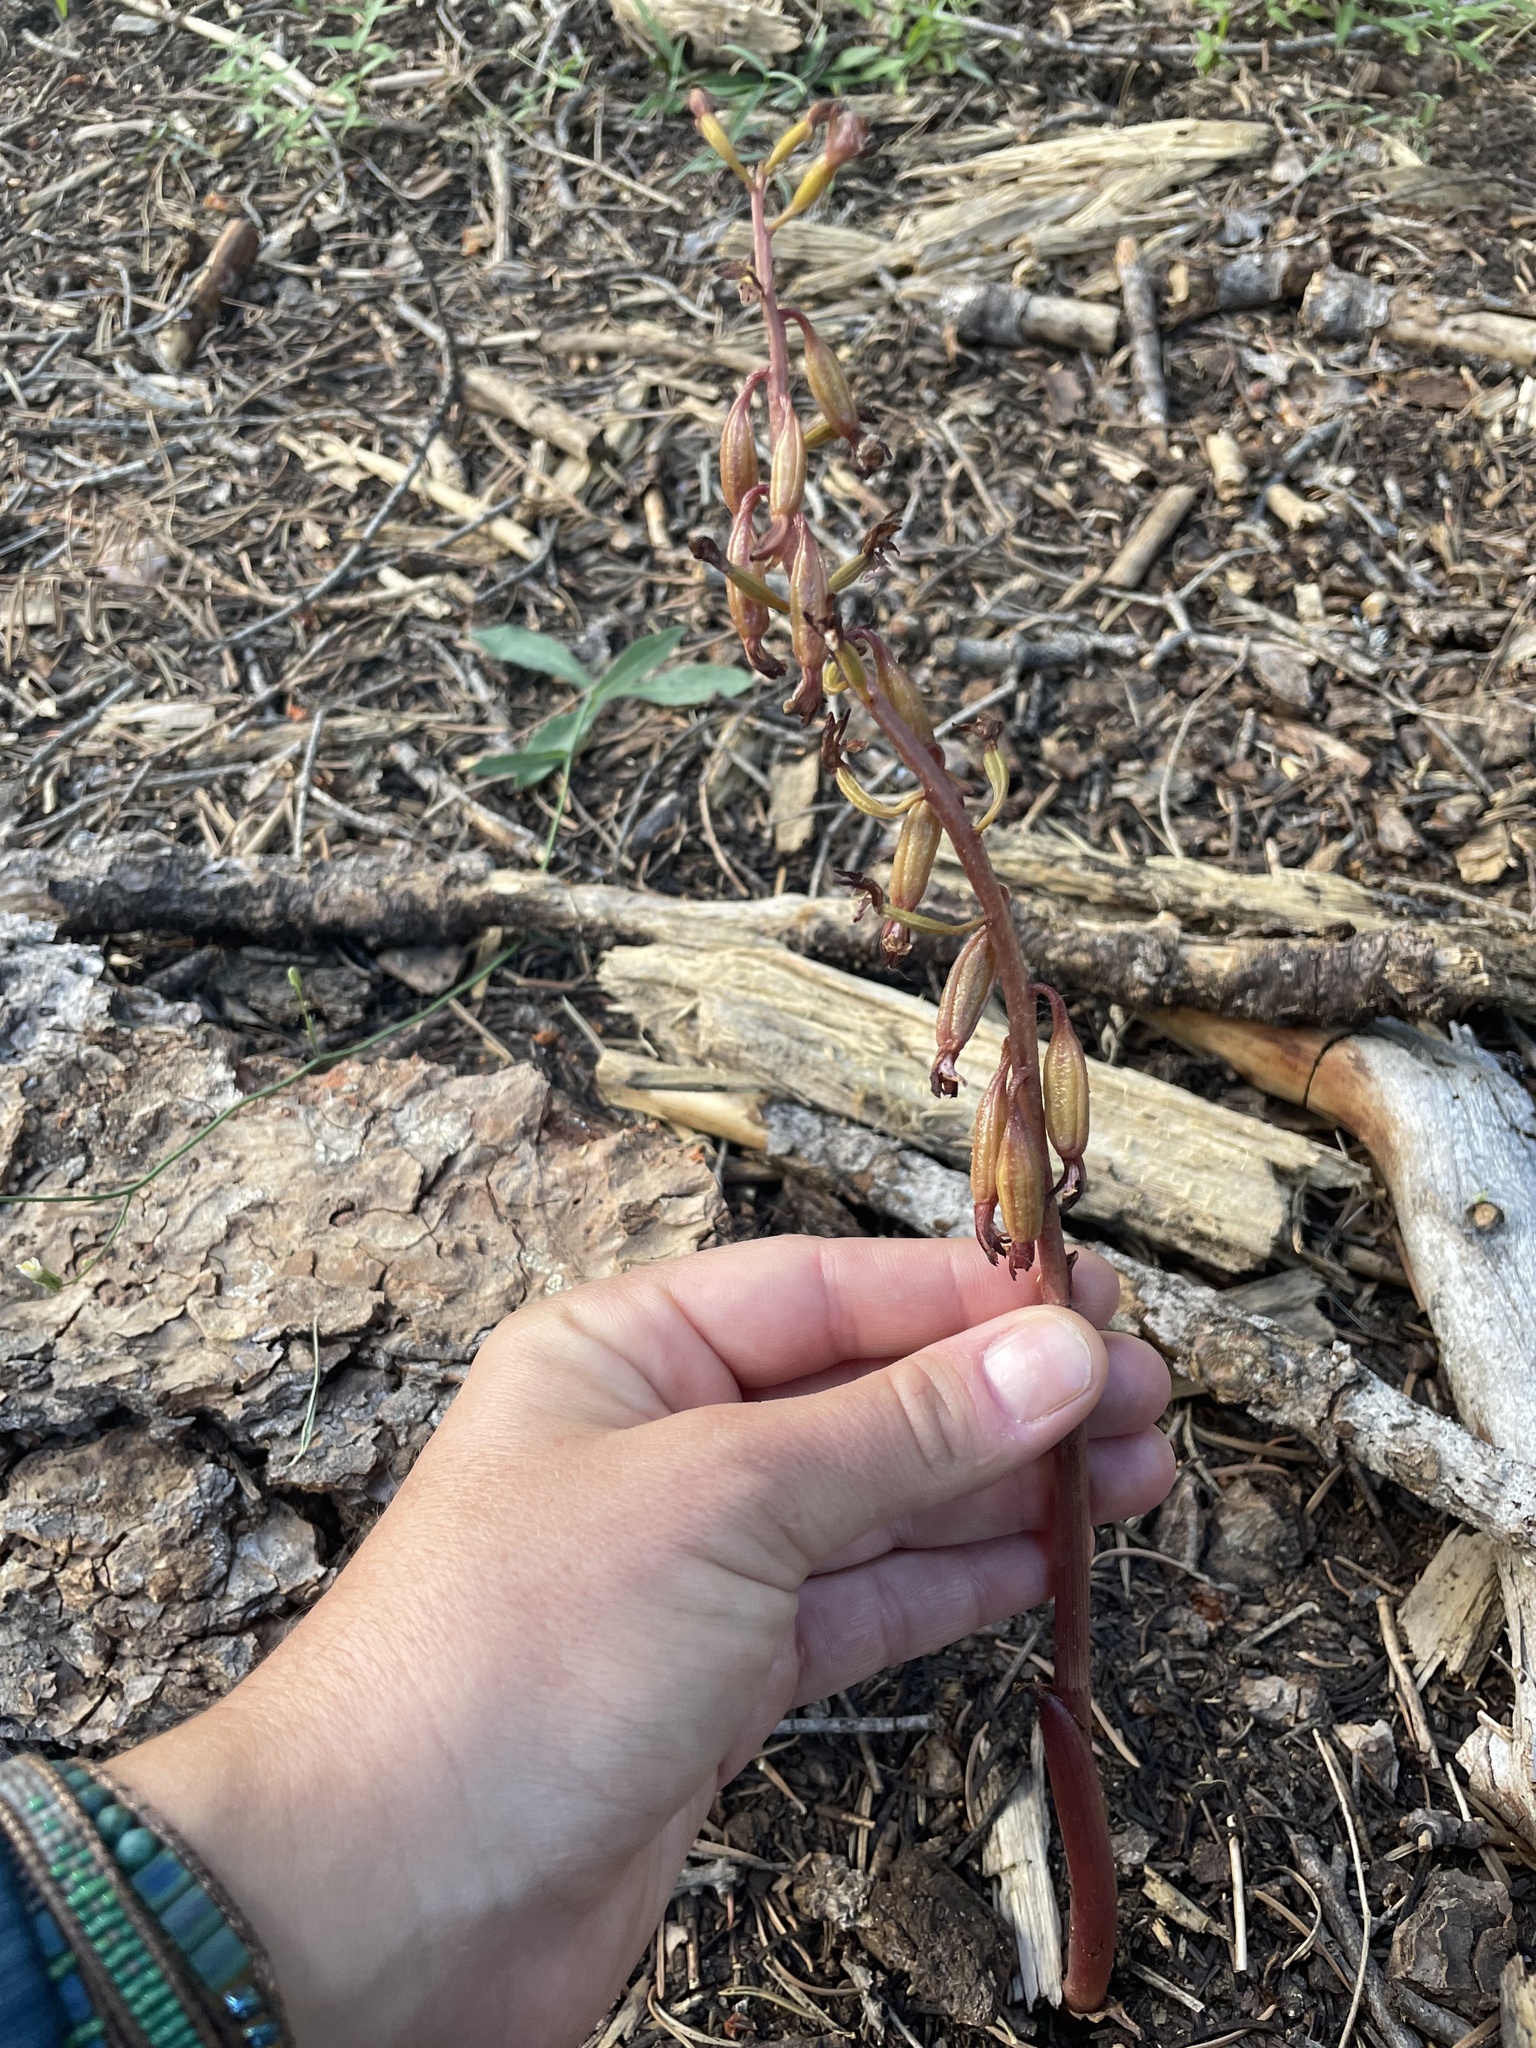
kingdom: Plantae
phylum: Tracheophyta
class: Liliopsida
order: Asparagales
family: Orchidaceae
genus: Corallorhiza
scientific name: Corallorhiza maculata
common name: Spotted coralroot
